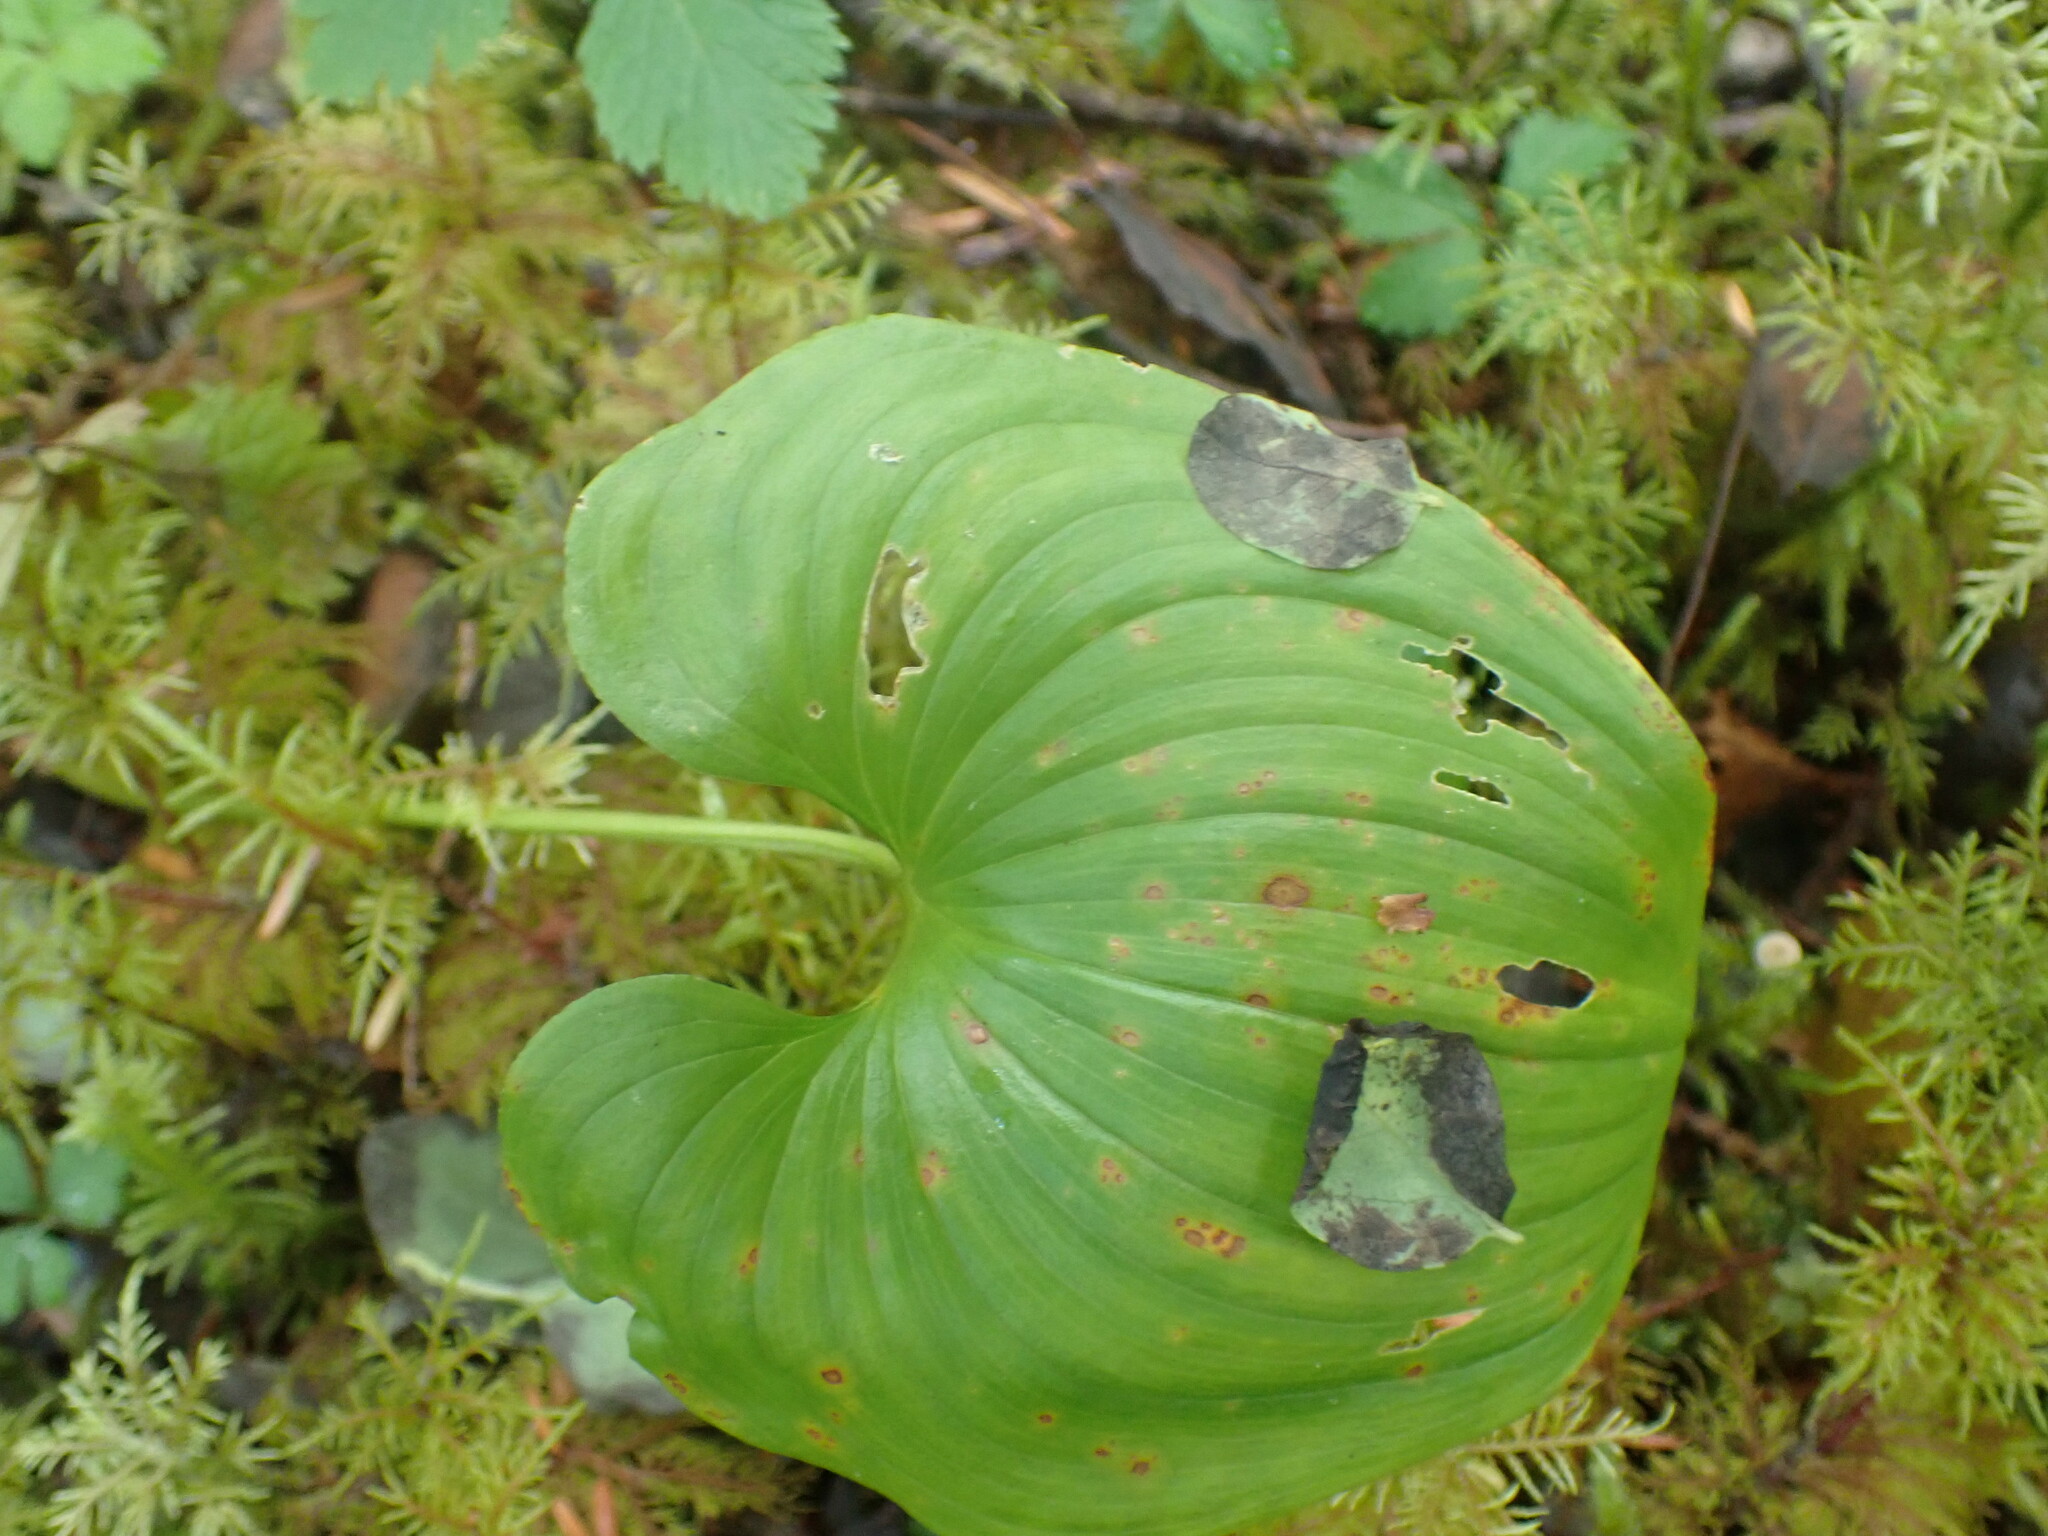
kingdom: Plantae
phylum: Tracheophyta
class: Liliopsida
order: Asparagales
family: Asparagaceae
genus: Maianthemum
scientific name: Maianthemum dilatatum
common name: False lily-of-the-valley
